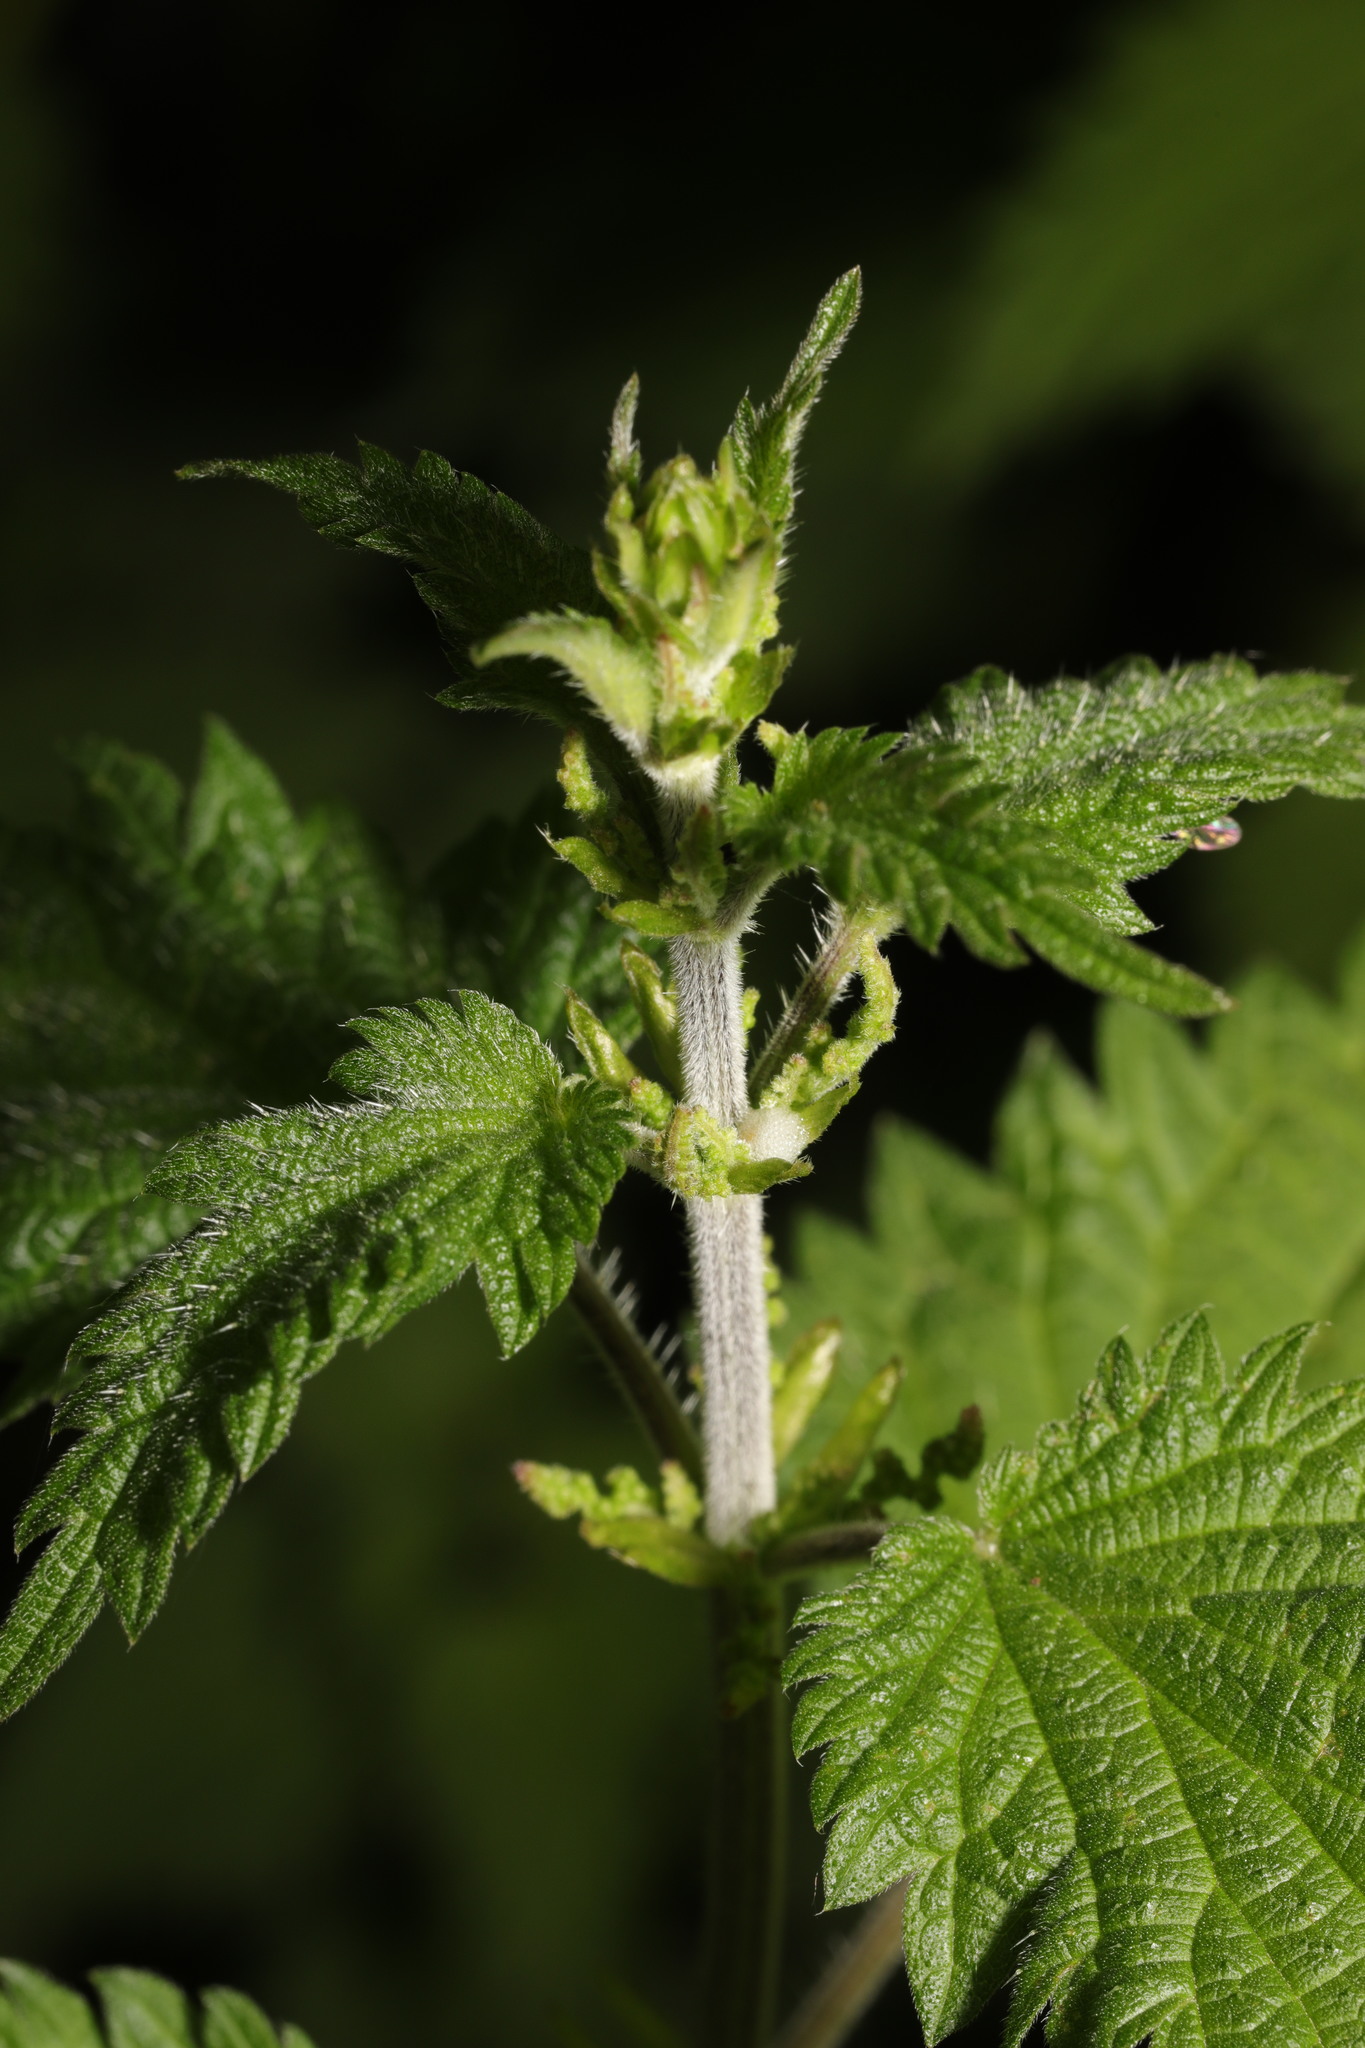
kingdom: Plantae
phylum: Tracheophyta
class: Magnoliopsida
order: Rosales
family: Urticaceae
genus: Urtica
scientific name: Urtica dioica
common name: Common nettle
